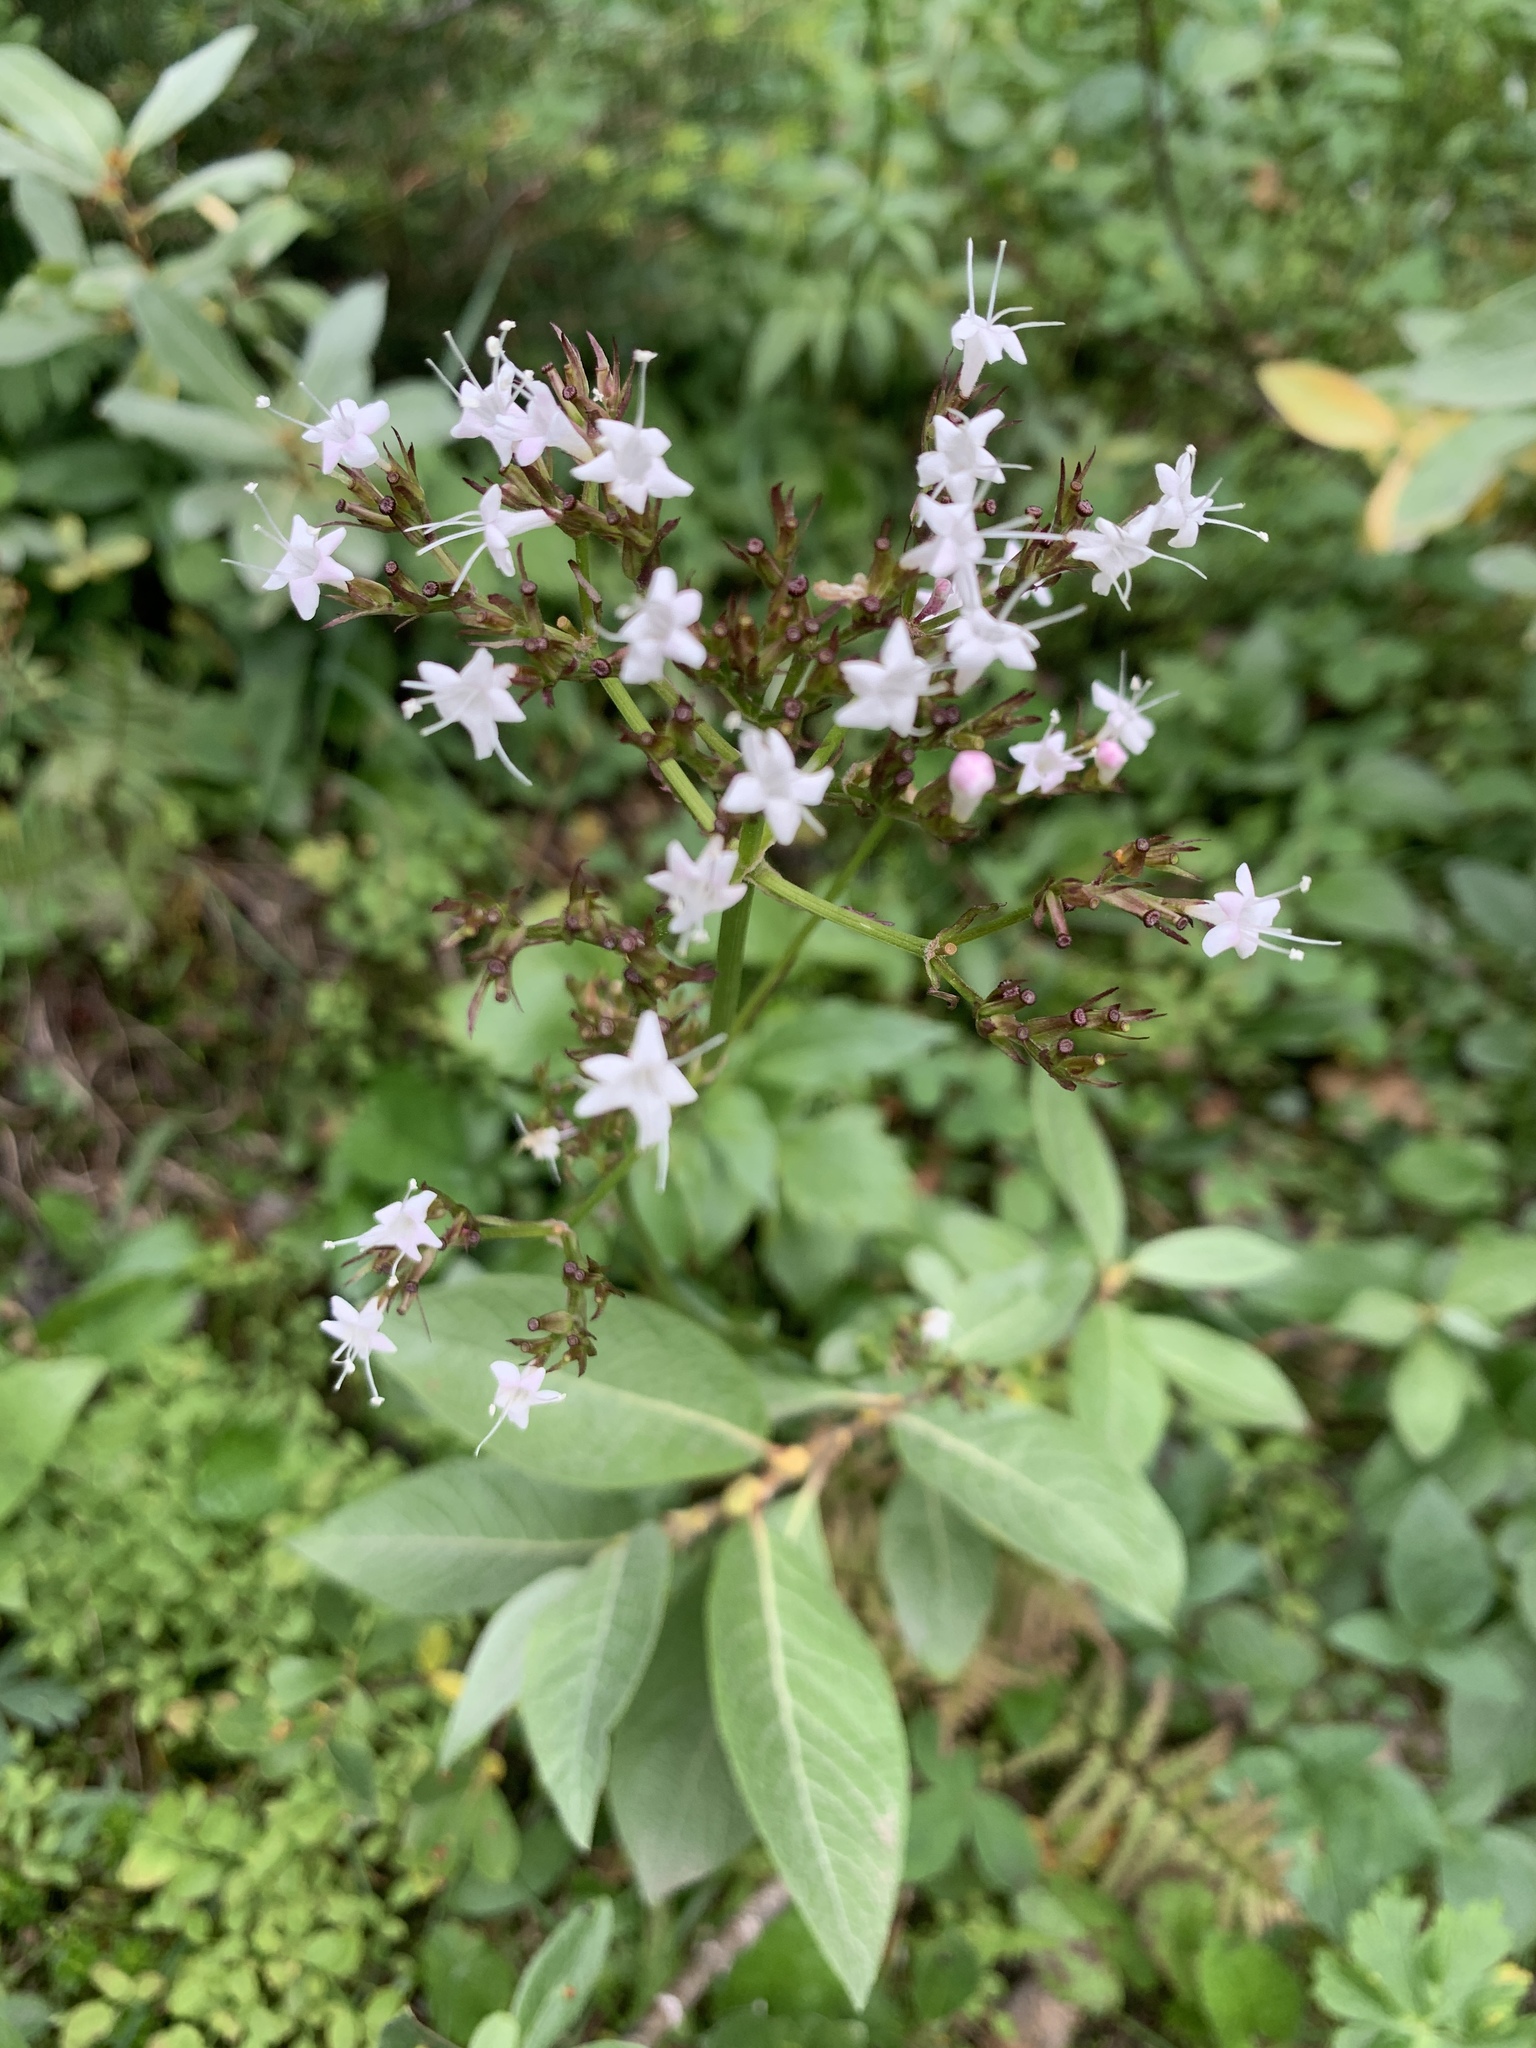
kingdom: Plantae
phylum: Tracheophyta
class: Magnoliopsida
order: Dipsacales
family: Caprifoliaceae
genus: Valeriana
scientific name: Valeriana sitchensis
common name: Pacific valerian
